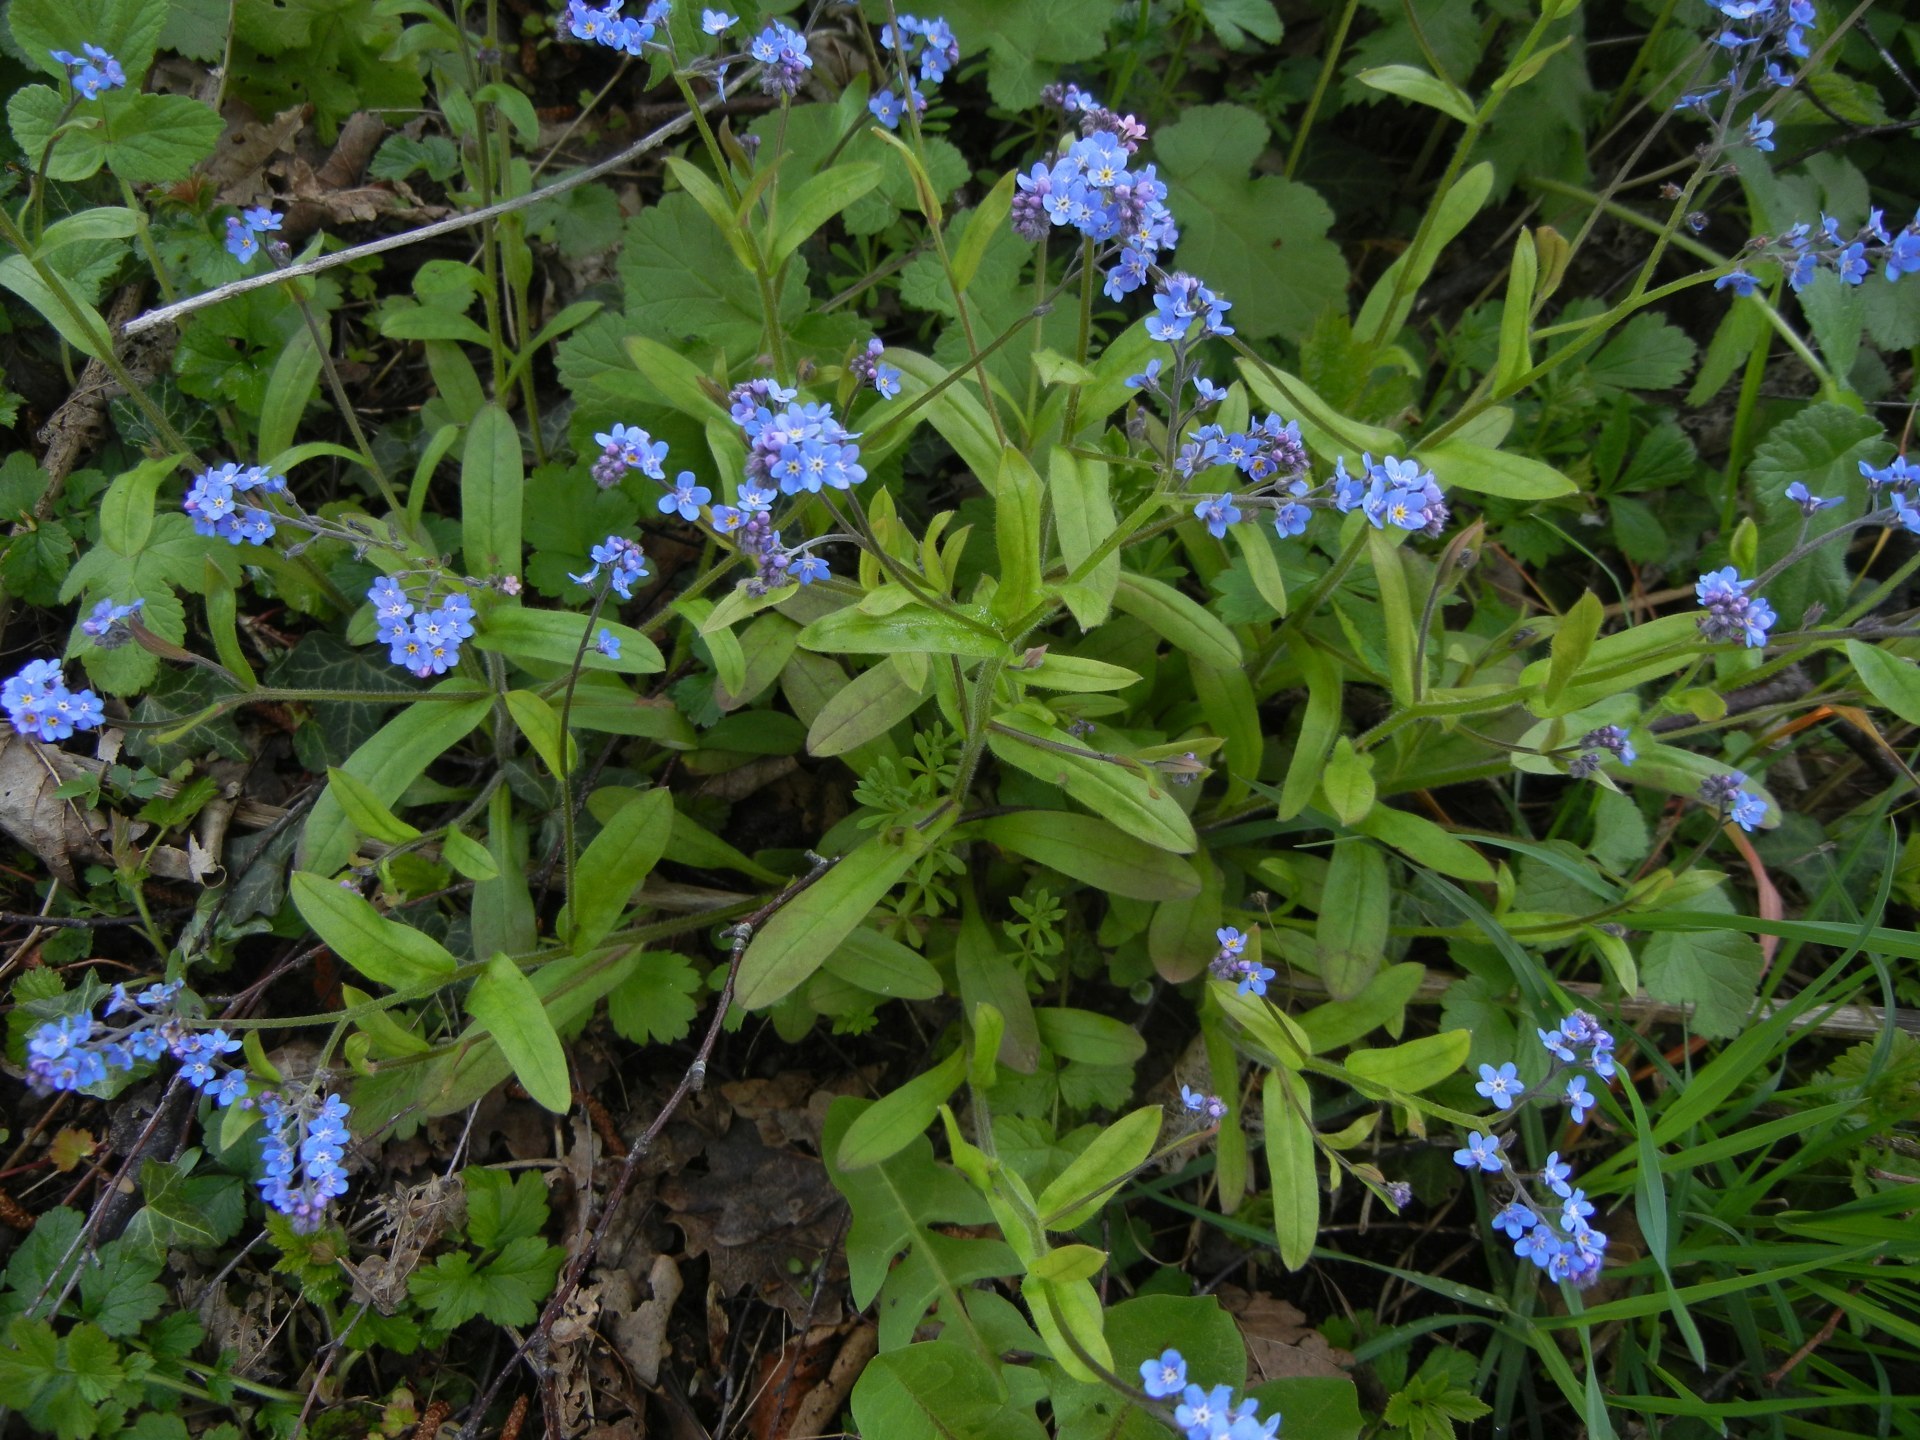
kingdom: Plantae
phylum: Tracheophyta
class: Magnoliopsida
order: Boraginales
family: Boraginaceae
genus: Myosotis
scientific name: Myosotis sylvatica
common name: Wood forget-me-not
